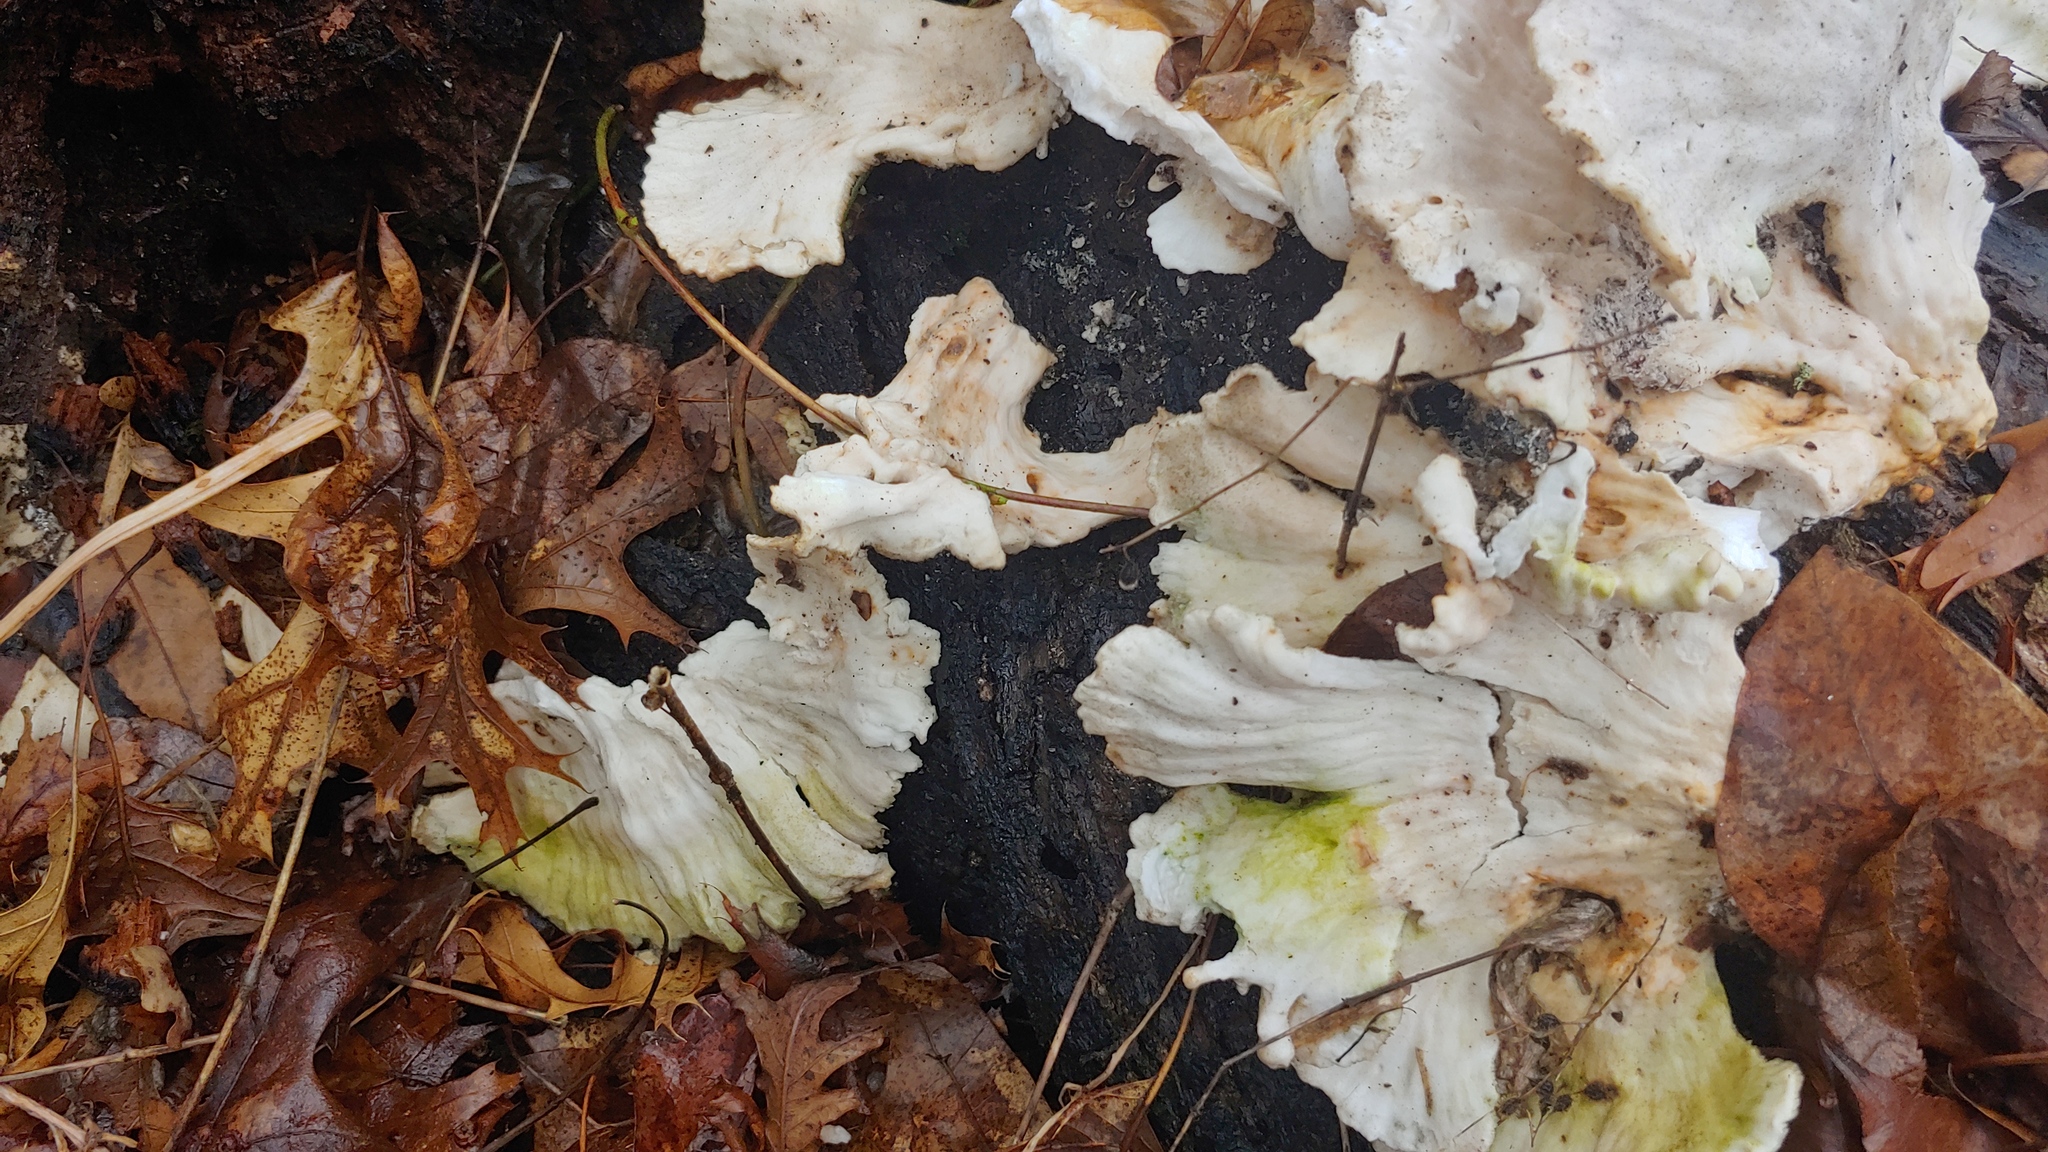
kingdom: Fungi
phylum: Basidiomycota
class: Agaricomycetes
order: Polyporales
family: Laetiporaceae
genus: Laetiporus
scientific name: Laetiporus sulphureus
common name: Chicken of the woods
